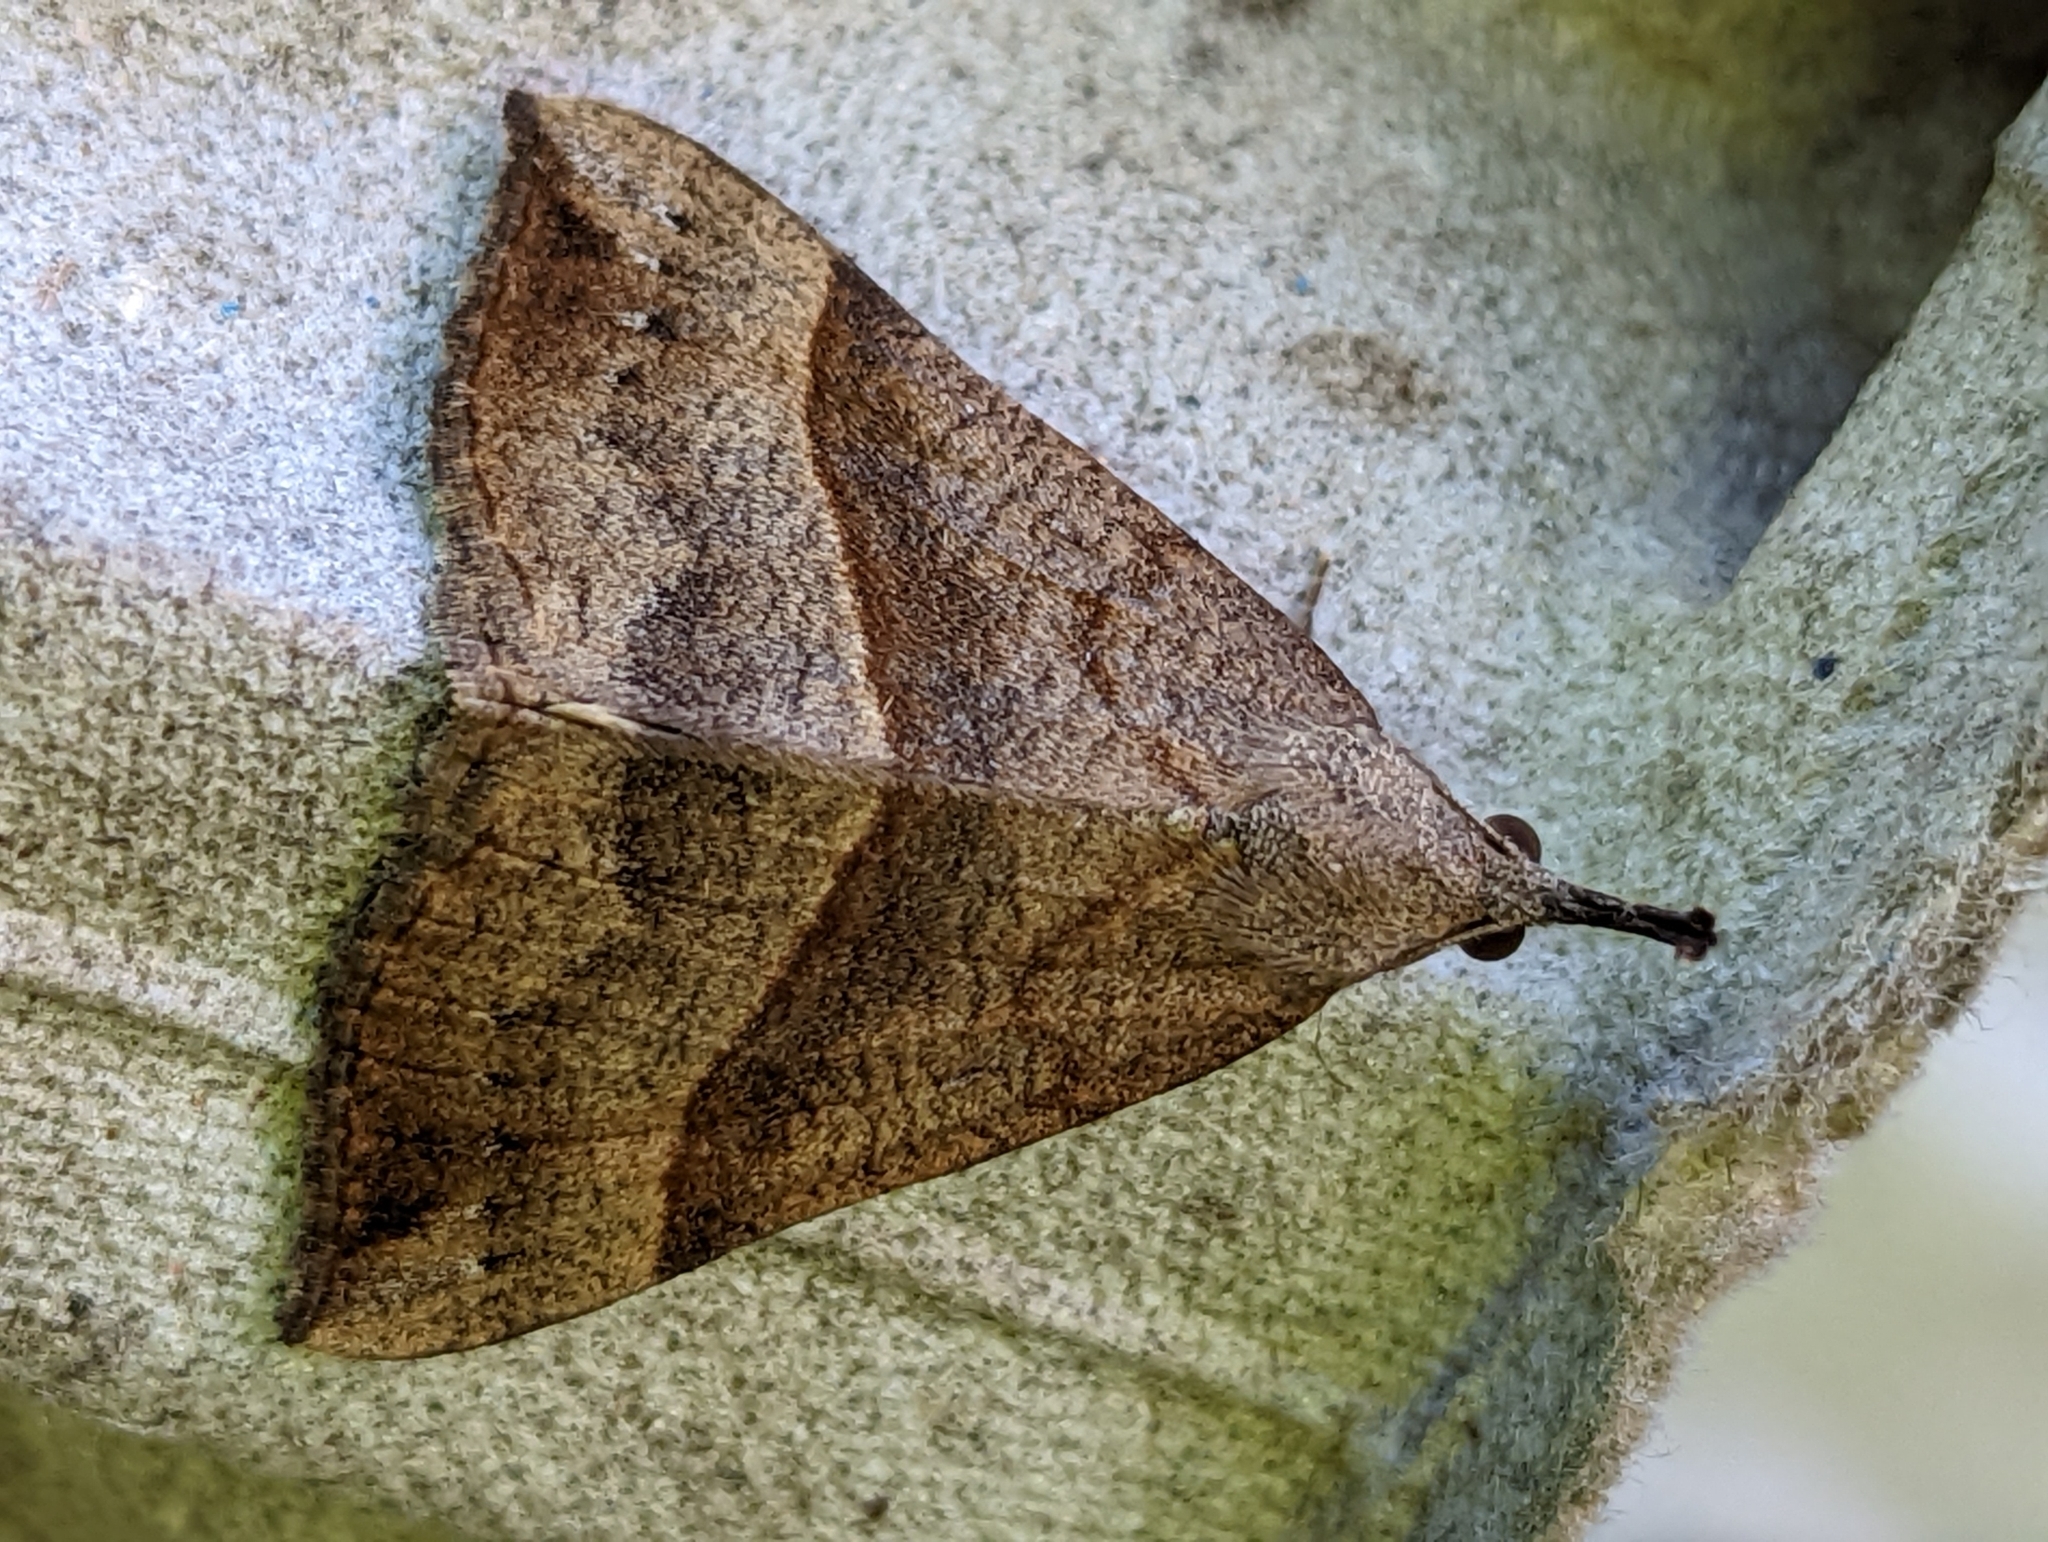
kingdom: Animalia
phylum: Arthropoda
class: Insecta
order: Lepidoptera
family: Erebidae
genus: Hypena
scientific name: Hypena proboscidalis
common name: Snout
